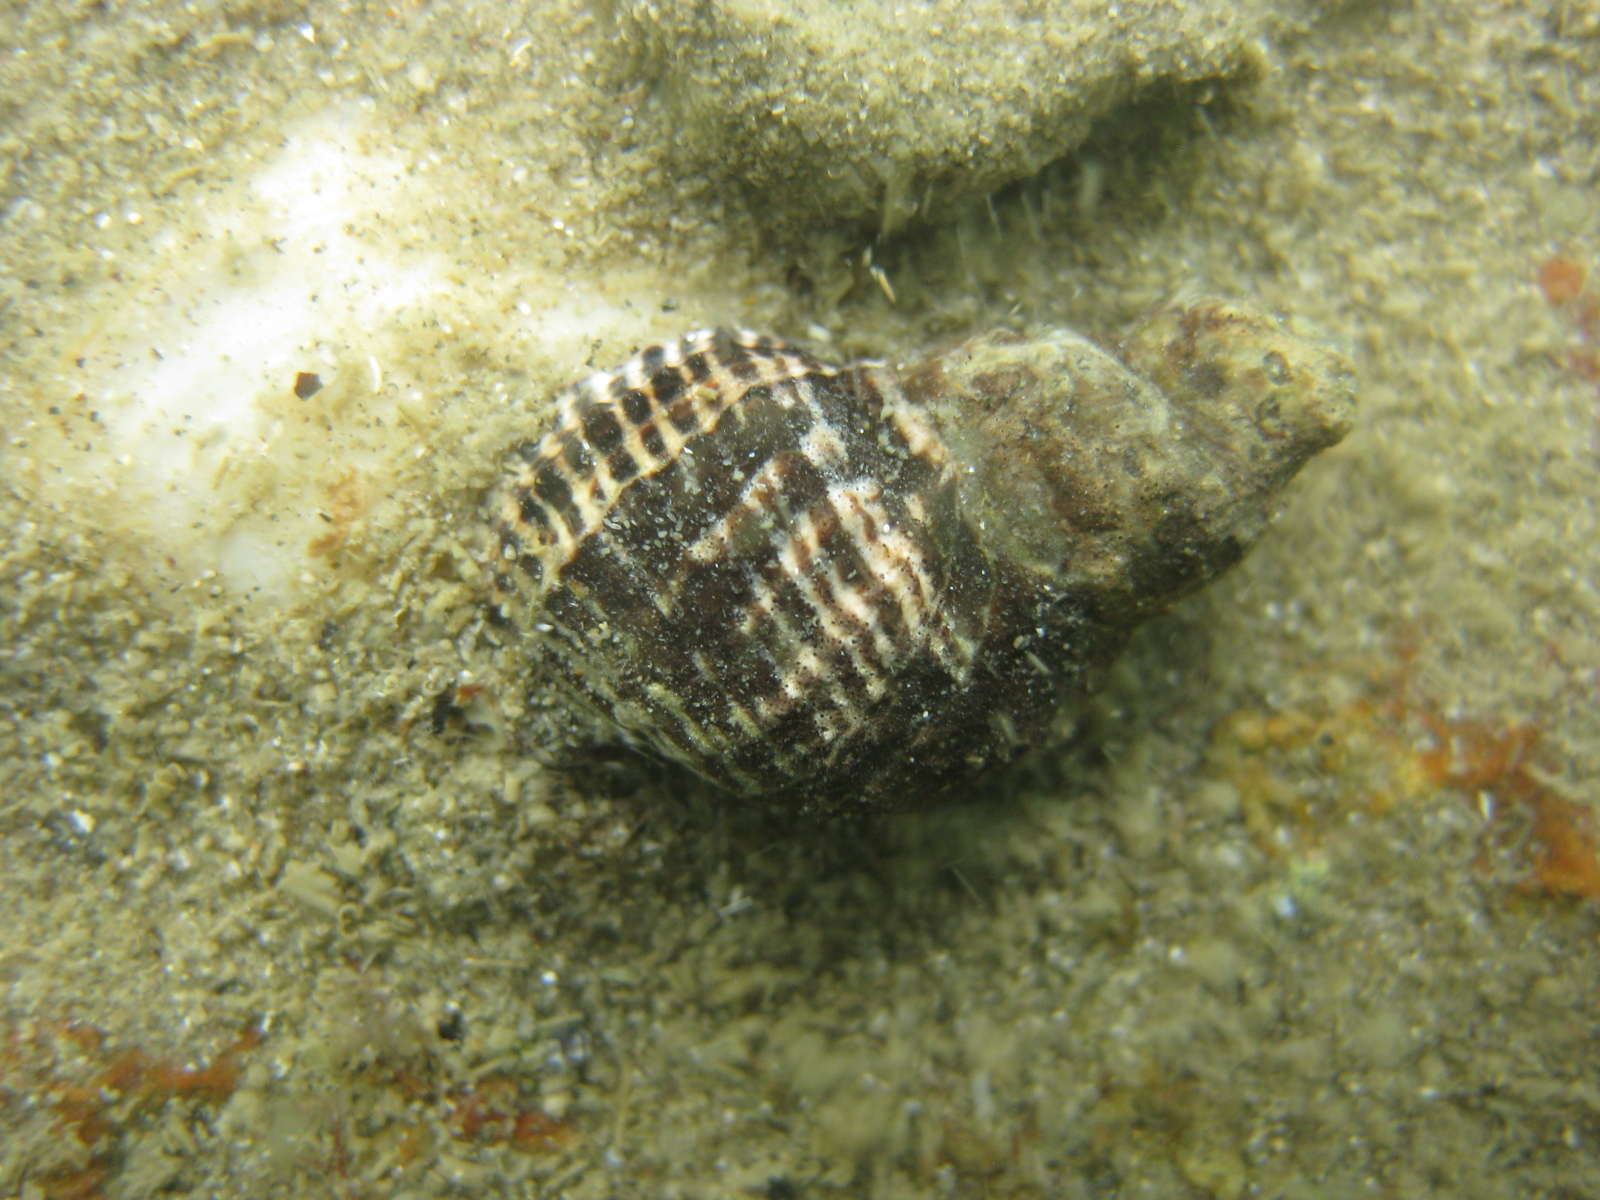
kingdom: Animalia
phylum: Mollusca
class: Gastropoda
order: Neogastropoda
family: Muricidae
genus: Haustrum
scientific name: Haustrum albomarginatum
